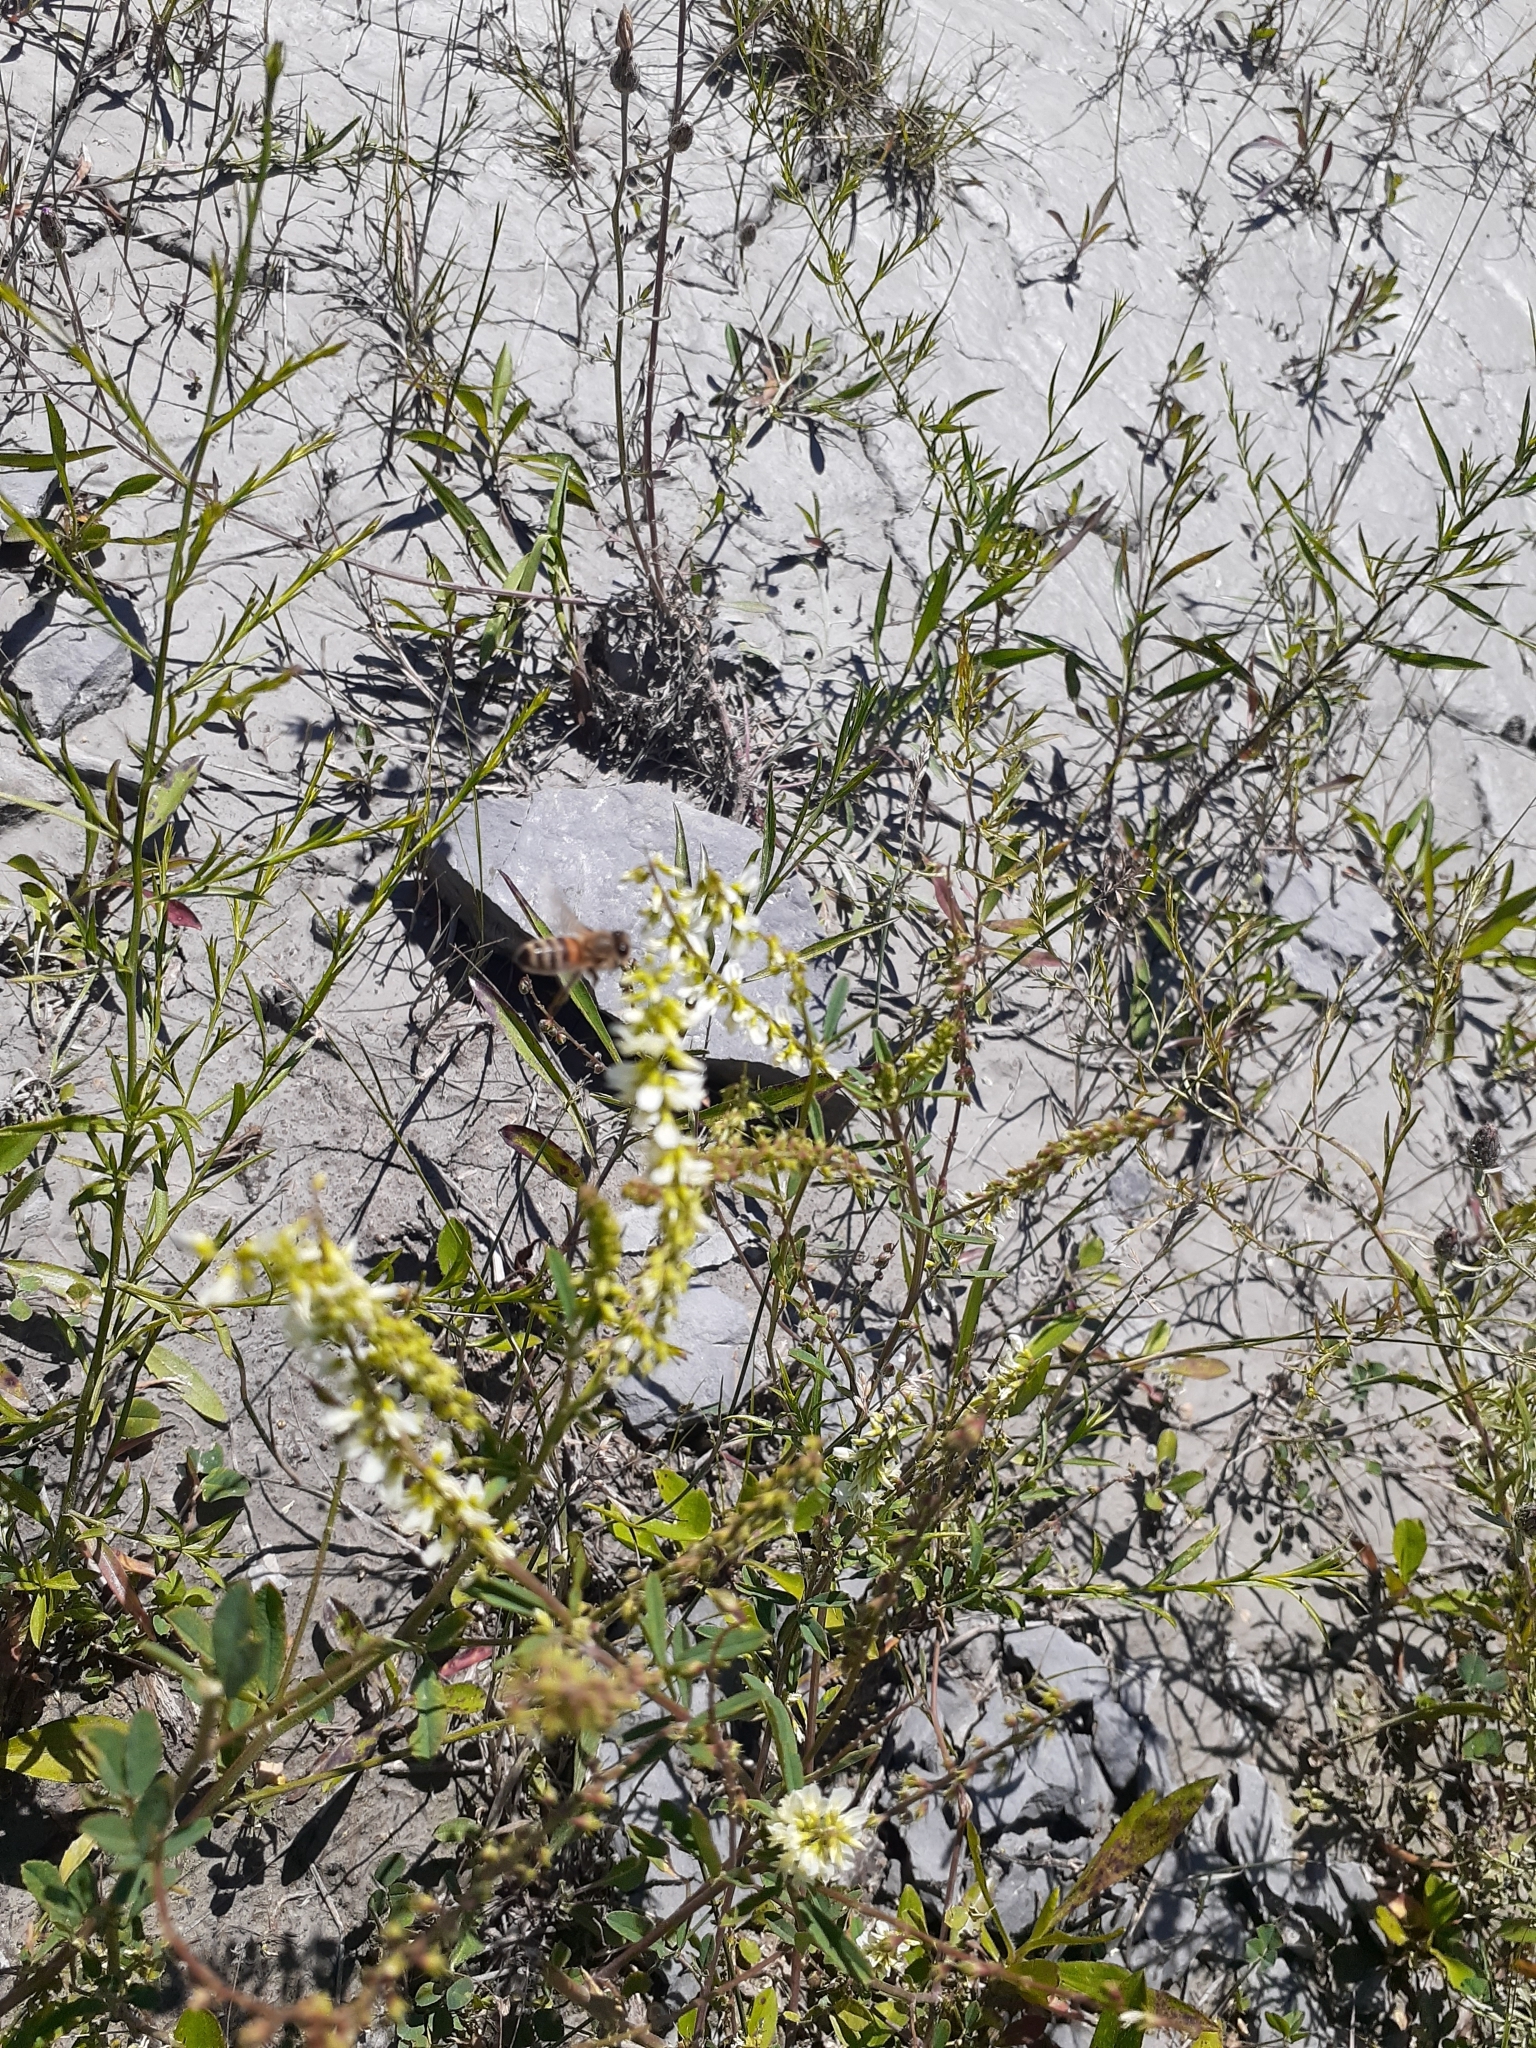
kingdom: Animalia
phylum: Arthropoda
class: Insecta
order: Hymenoptera
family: Apidae
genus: Apis
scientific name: Apis mellifera
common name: Honey bee
